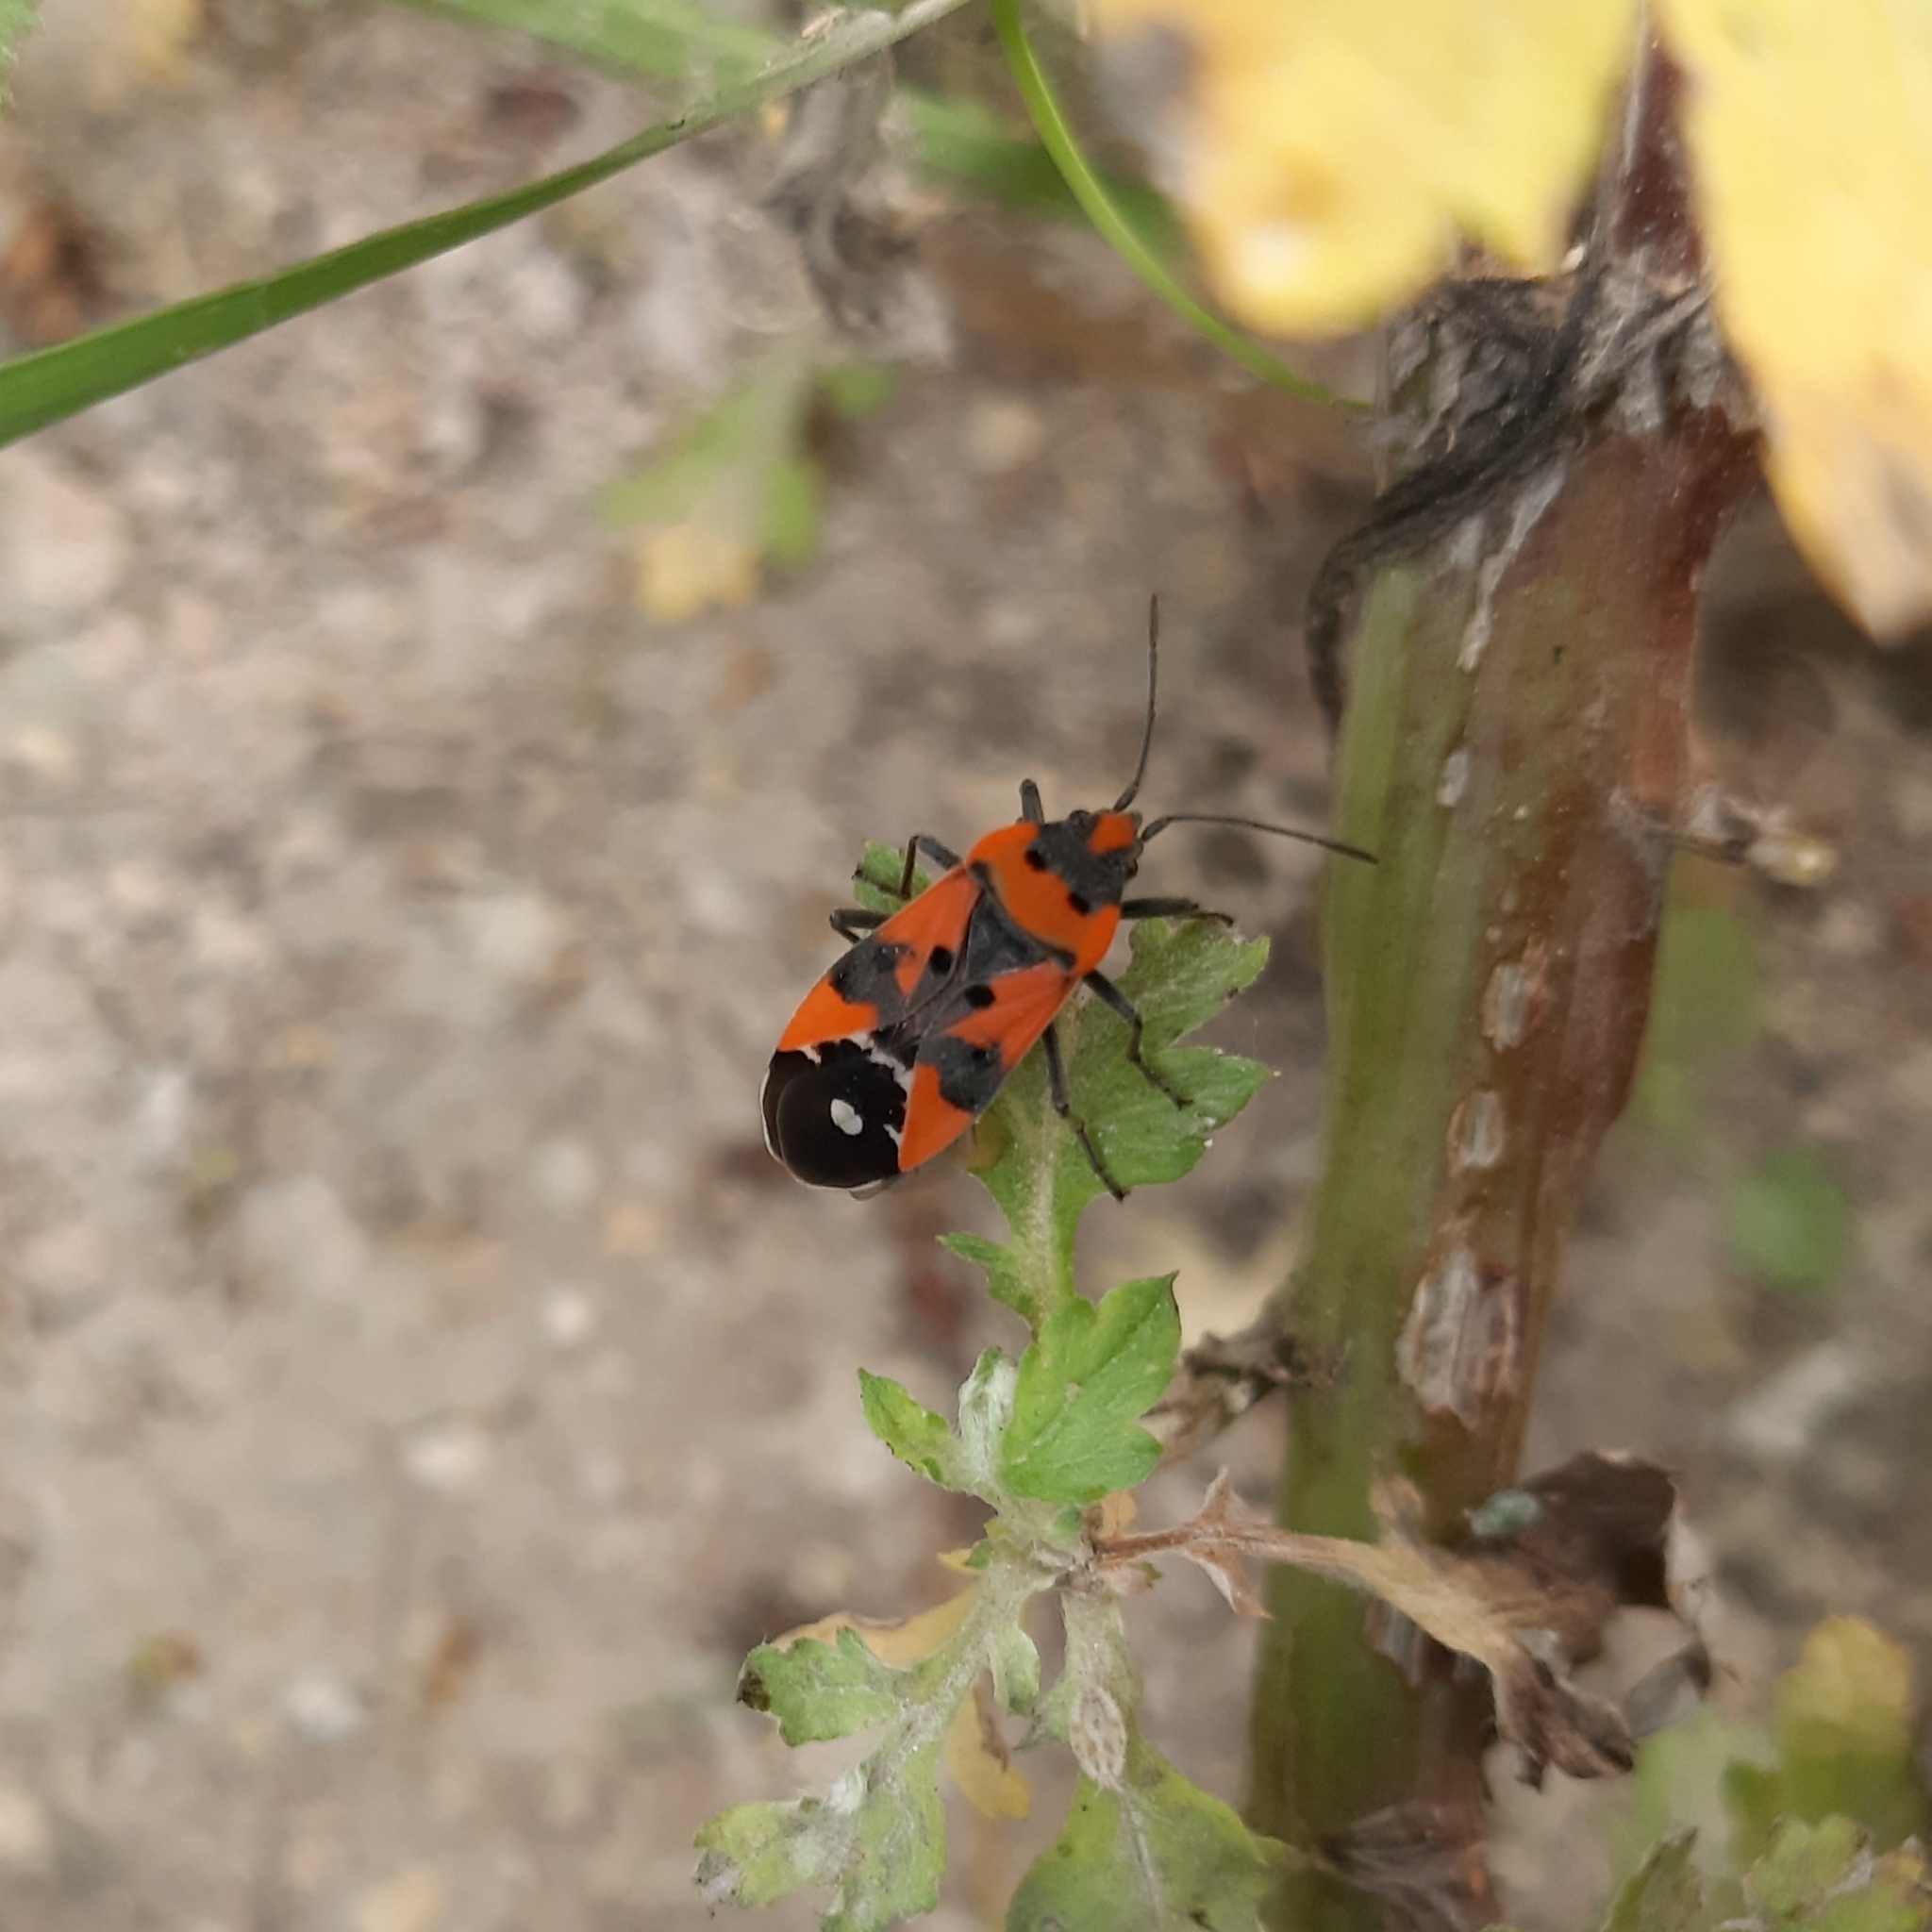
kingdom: Animalia
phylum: Arthropoda
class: Insecta
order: Hemiptera
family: Lygaeidae
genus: Lygaeus
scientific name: Lygaeus equestris
